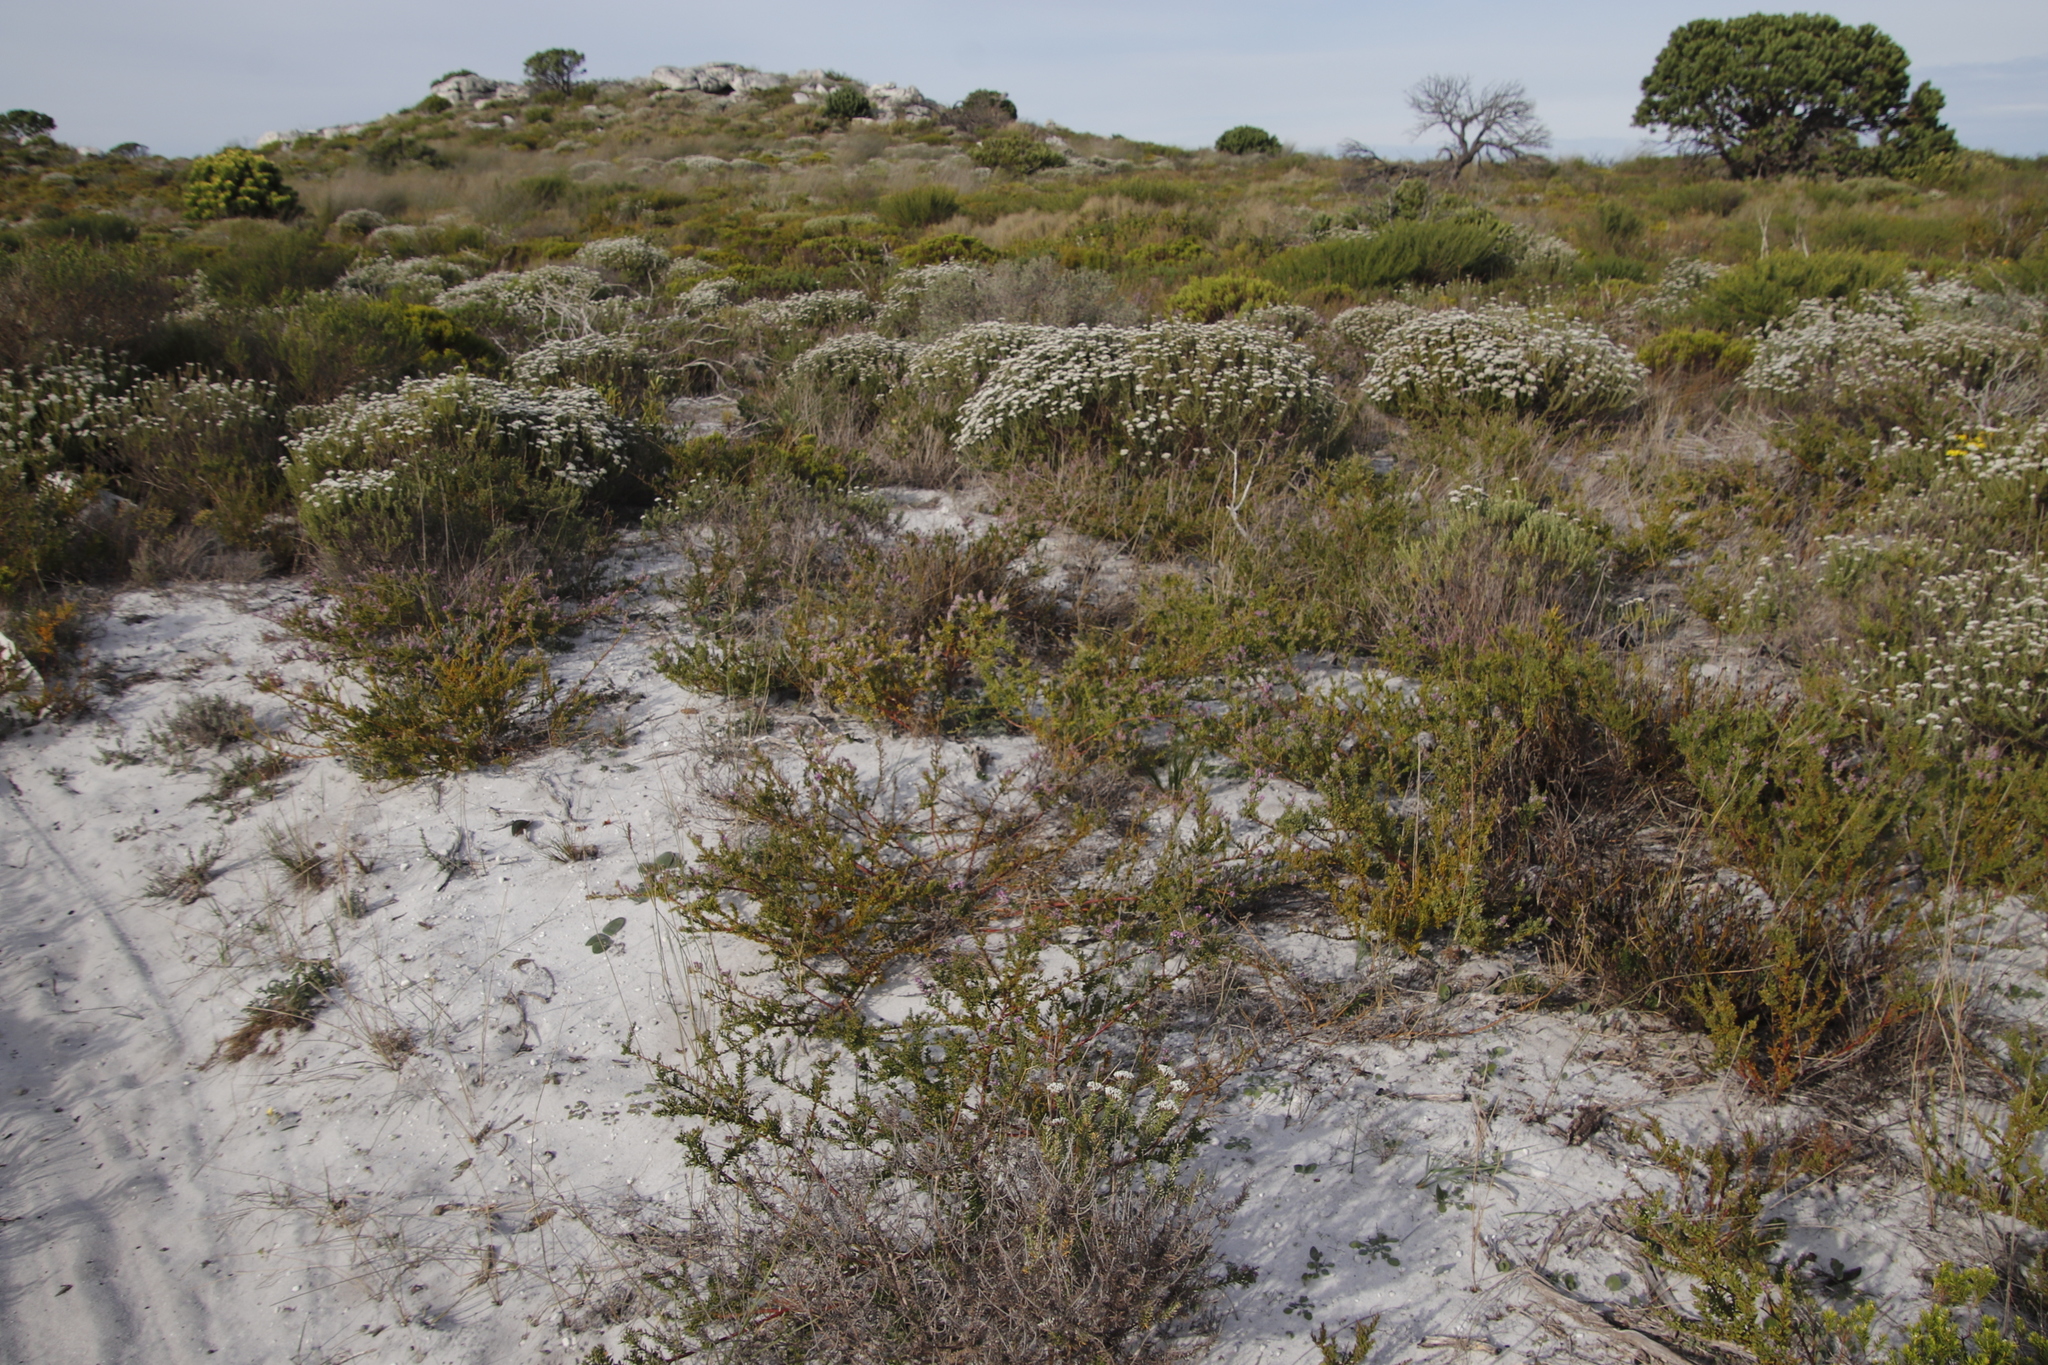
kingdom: Plantae
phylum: Tracheophyta
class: Magnoliopsida
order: Fabales
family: Polygalaceae
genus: Muraltia
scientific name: Muraltia spinosa
